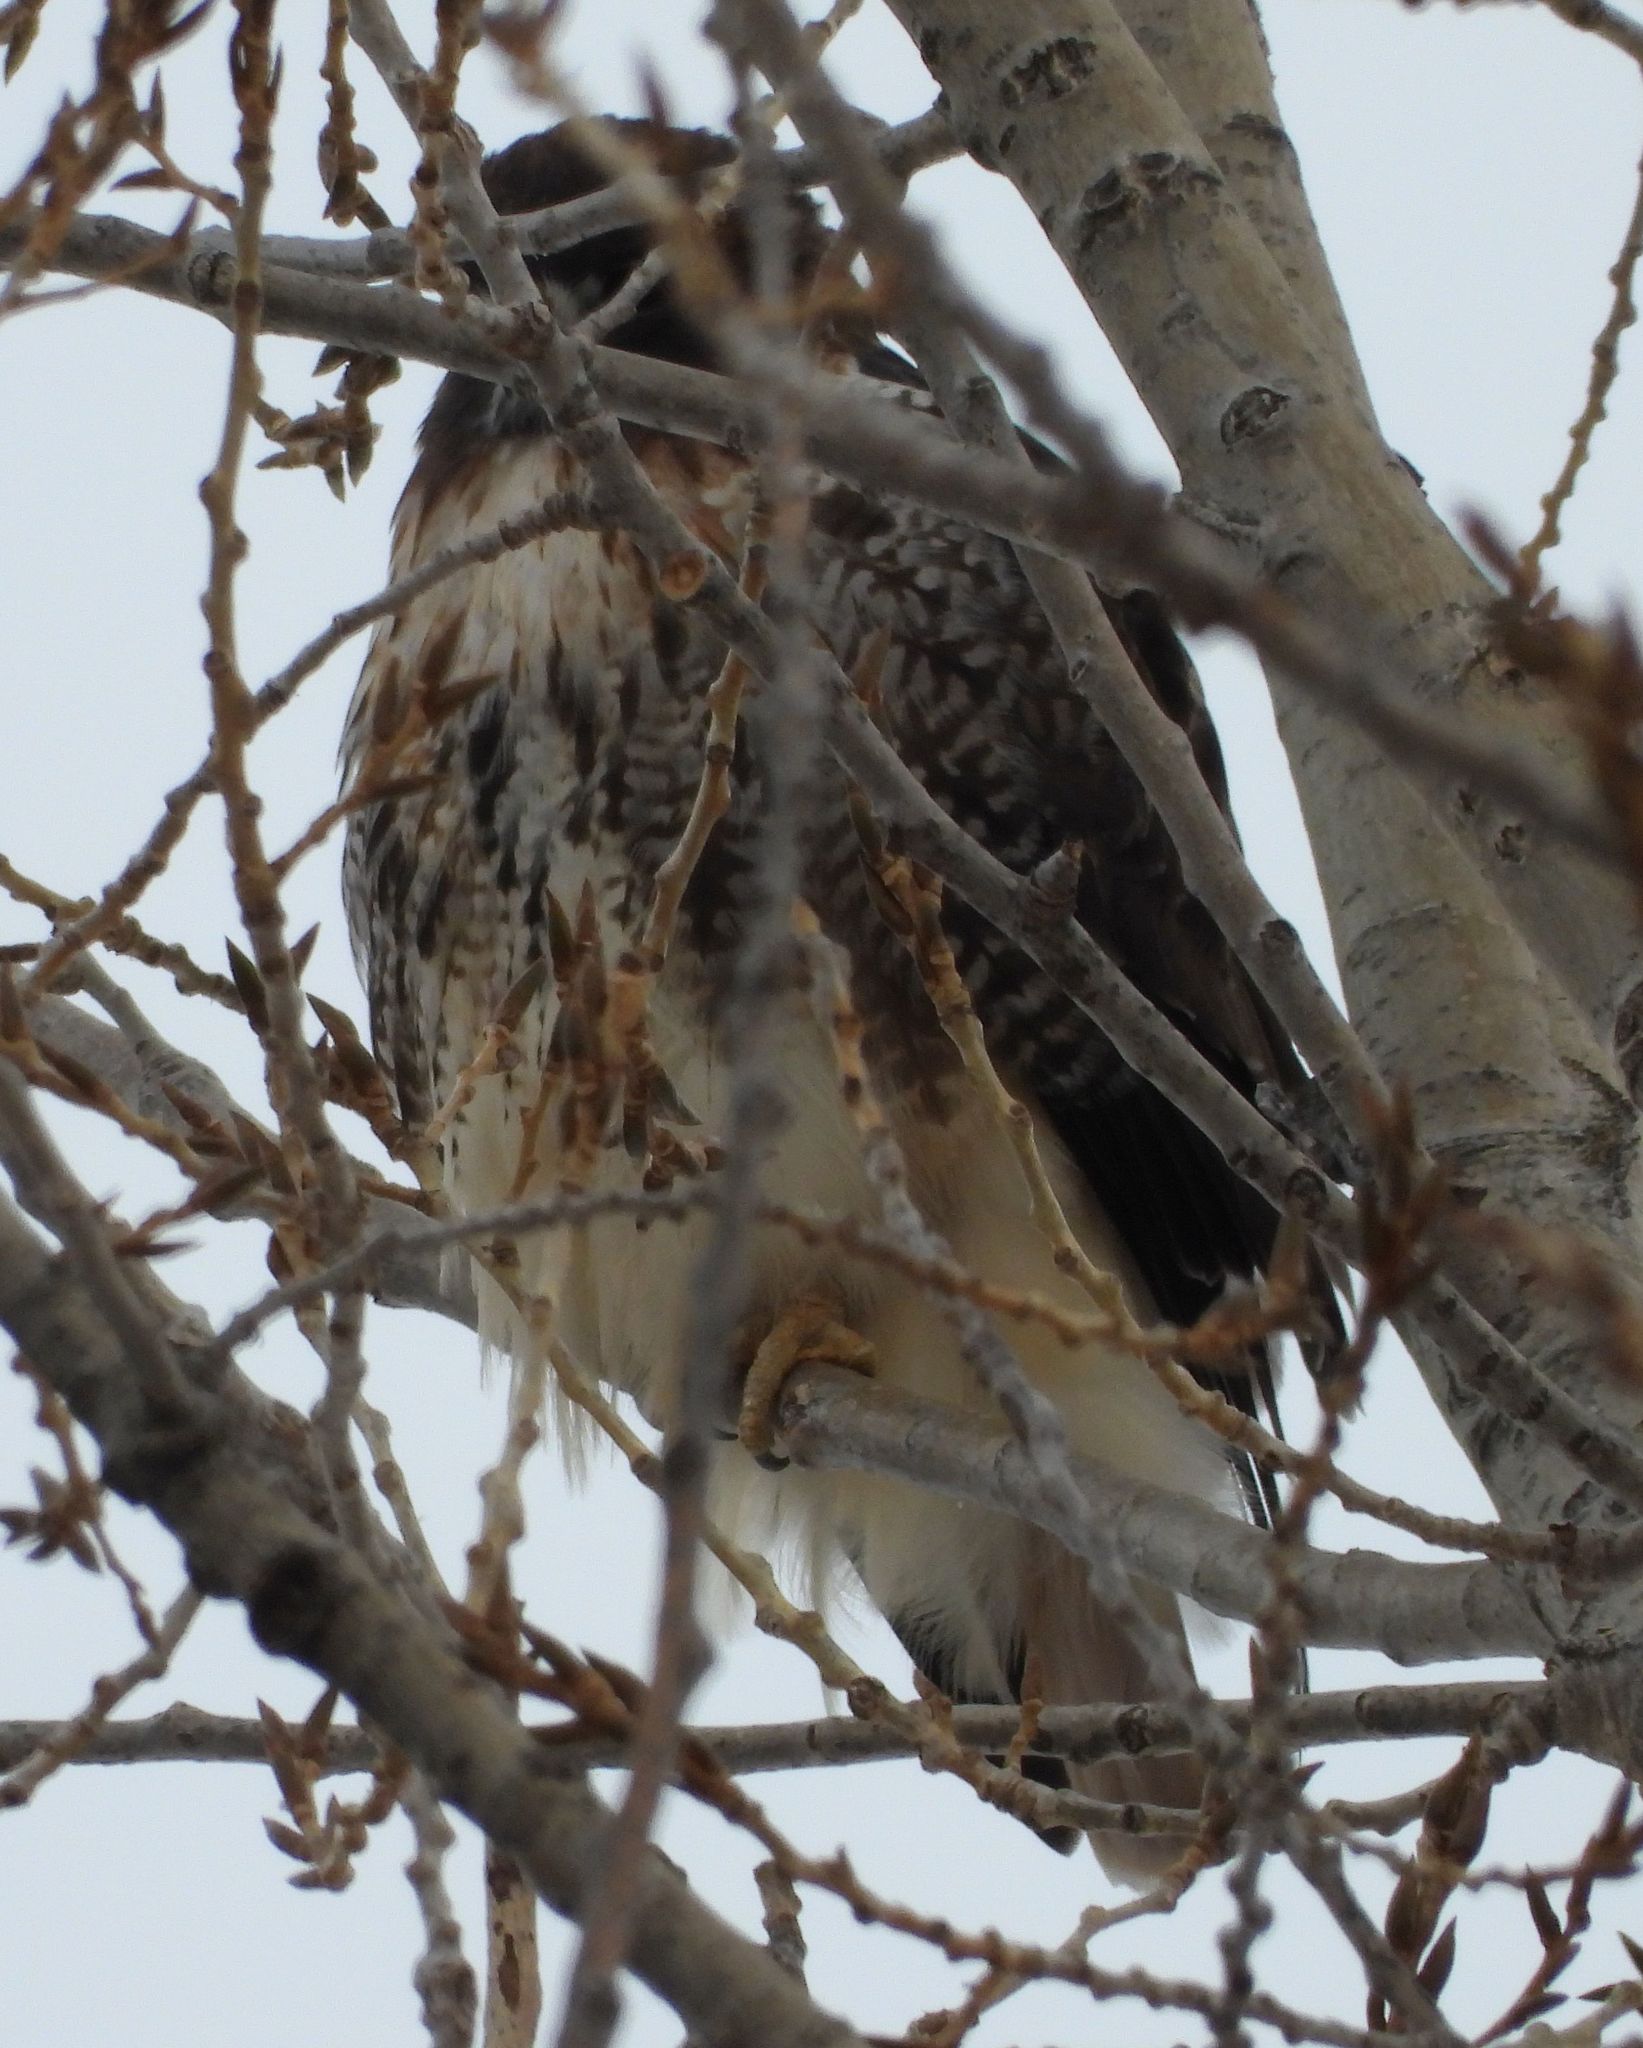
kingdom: Animalia
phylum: Chordata
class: Aves
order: Accipitriformes
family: Accipitridae
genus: Buteo
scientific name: Buteo jamaicensis
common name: Red-tailed hawk
